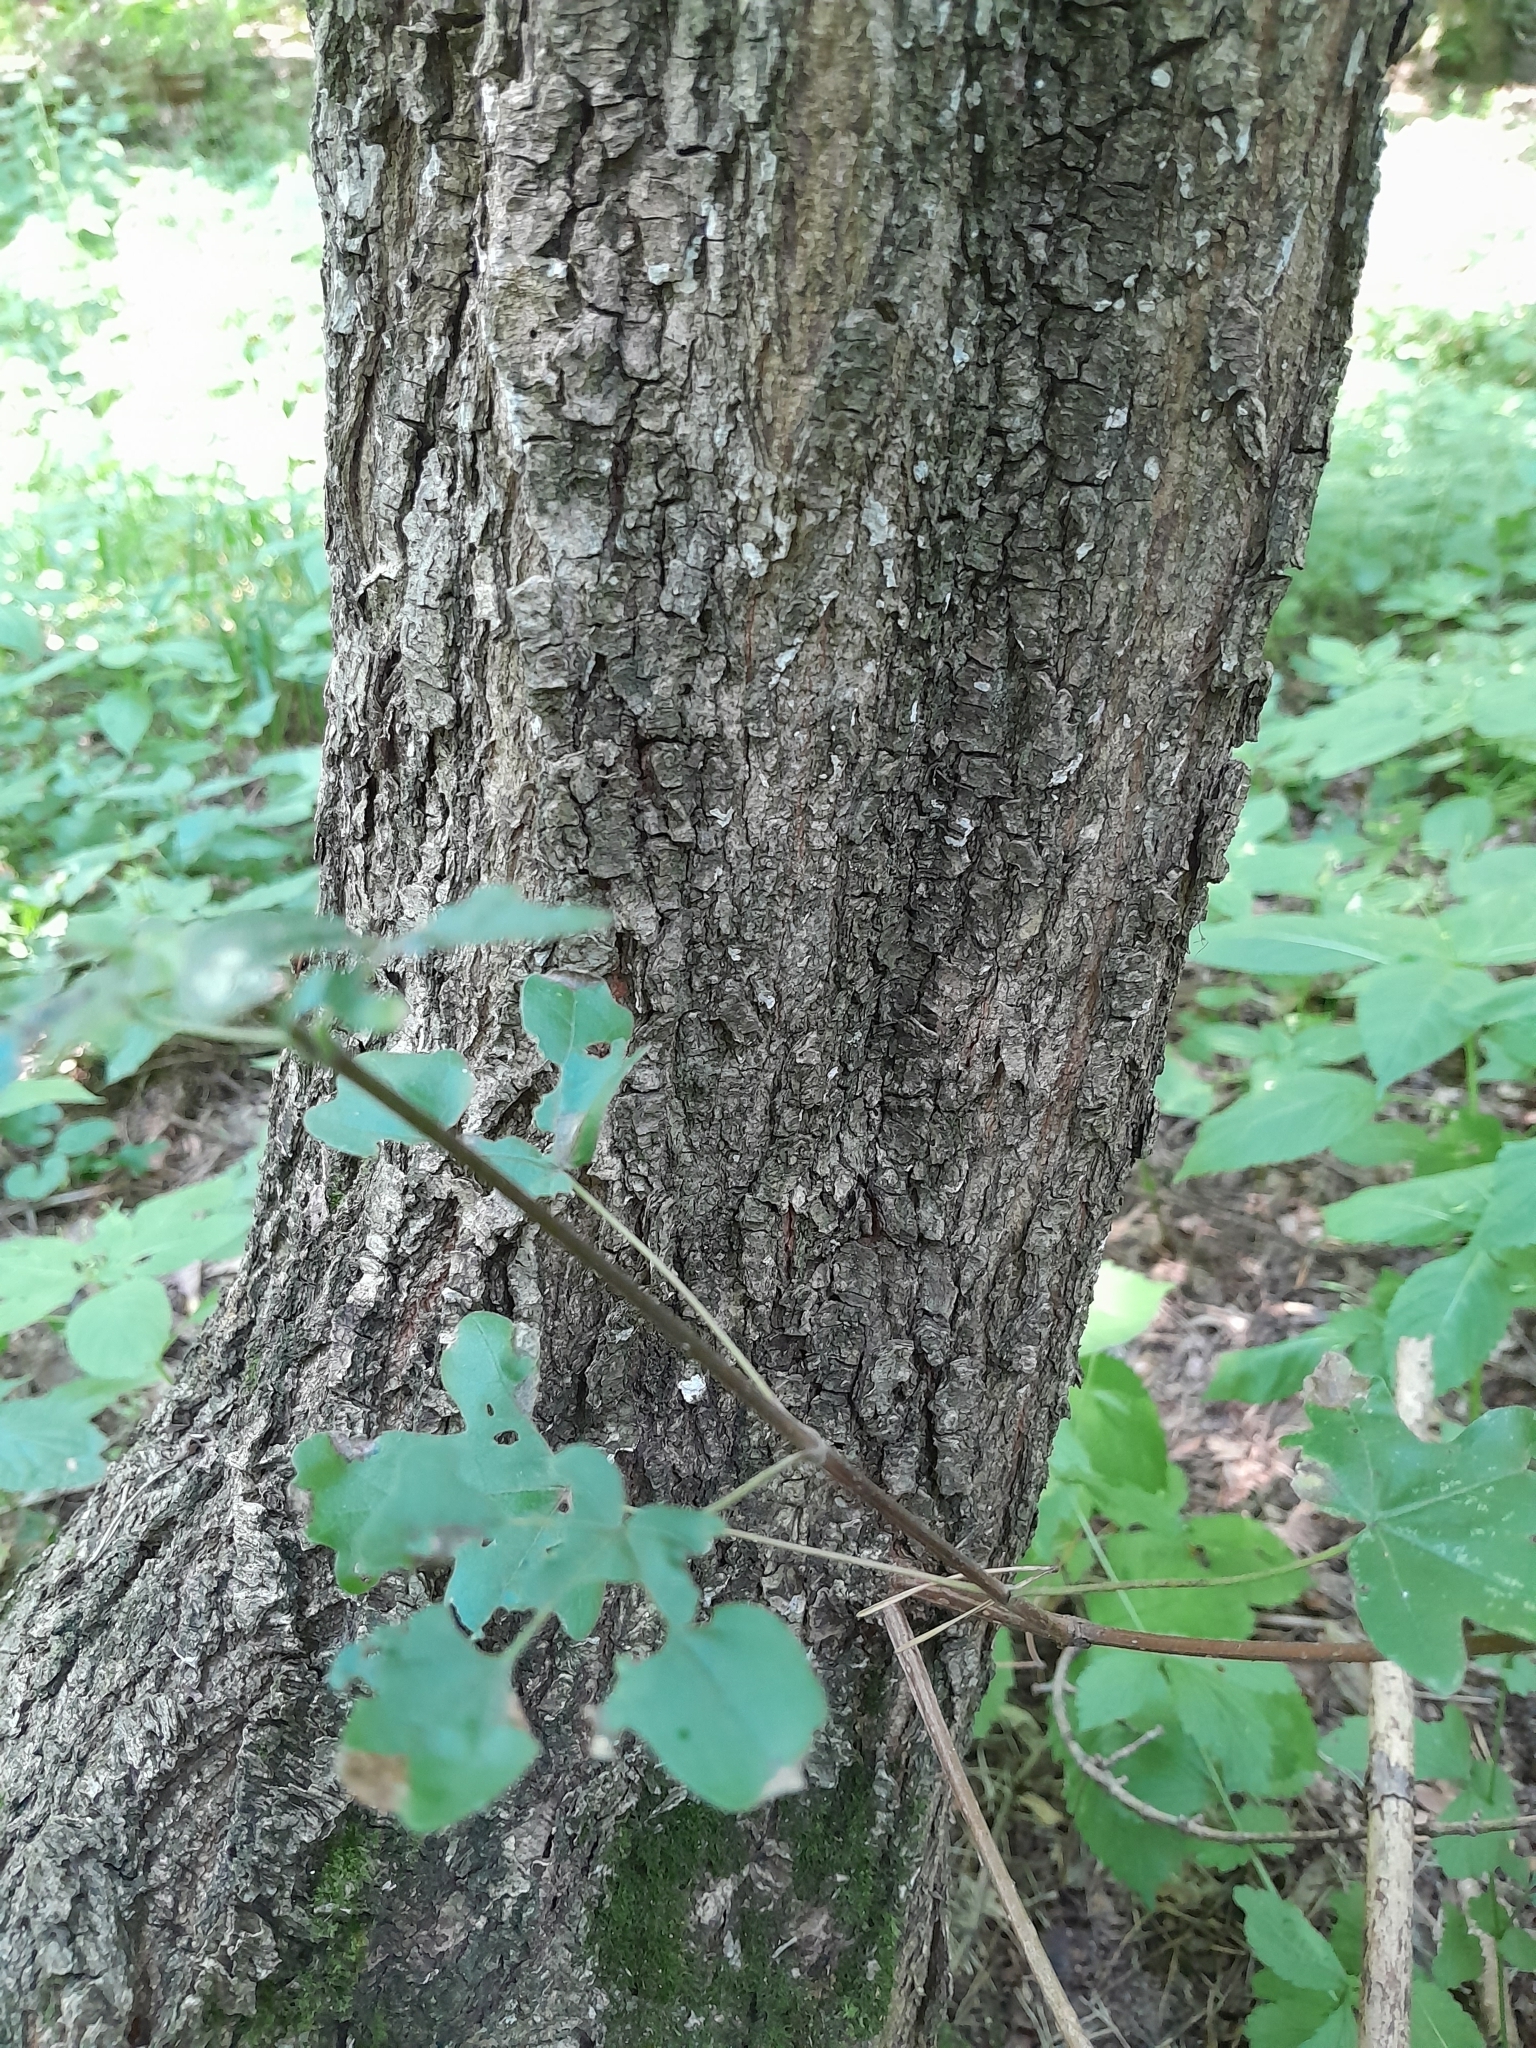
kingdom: Plantae
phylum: Tracheophyta
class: Magnoliopsida
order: Sapindales
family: Sapindaceae
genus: Acer
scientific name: Acer campestre
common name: Field maple
